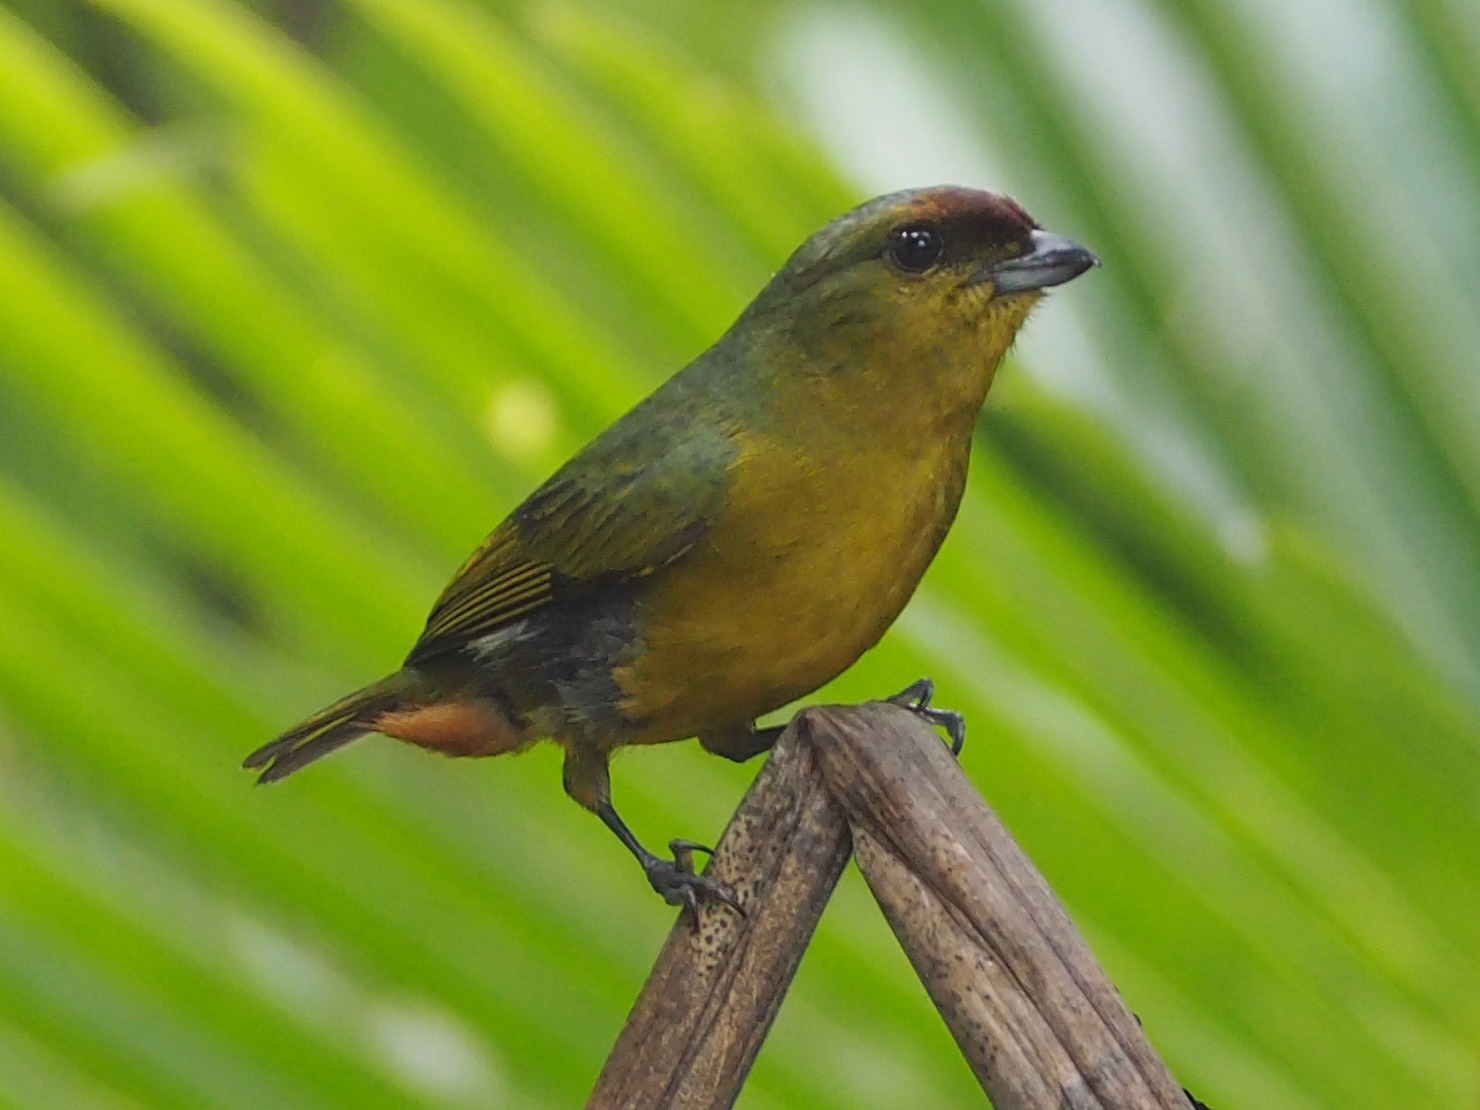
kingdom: Animalia
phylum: Chordata
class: Aves
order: Passeriformes
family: Fringillidae
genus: Euphonia
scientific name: Euphonia gouldi
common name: Olive-backed euphonia
